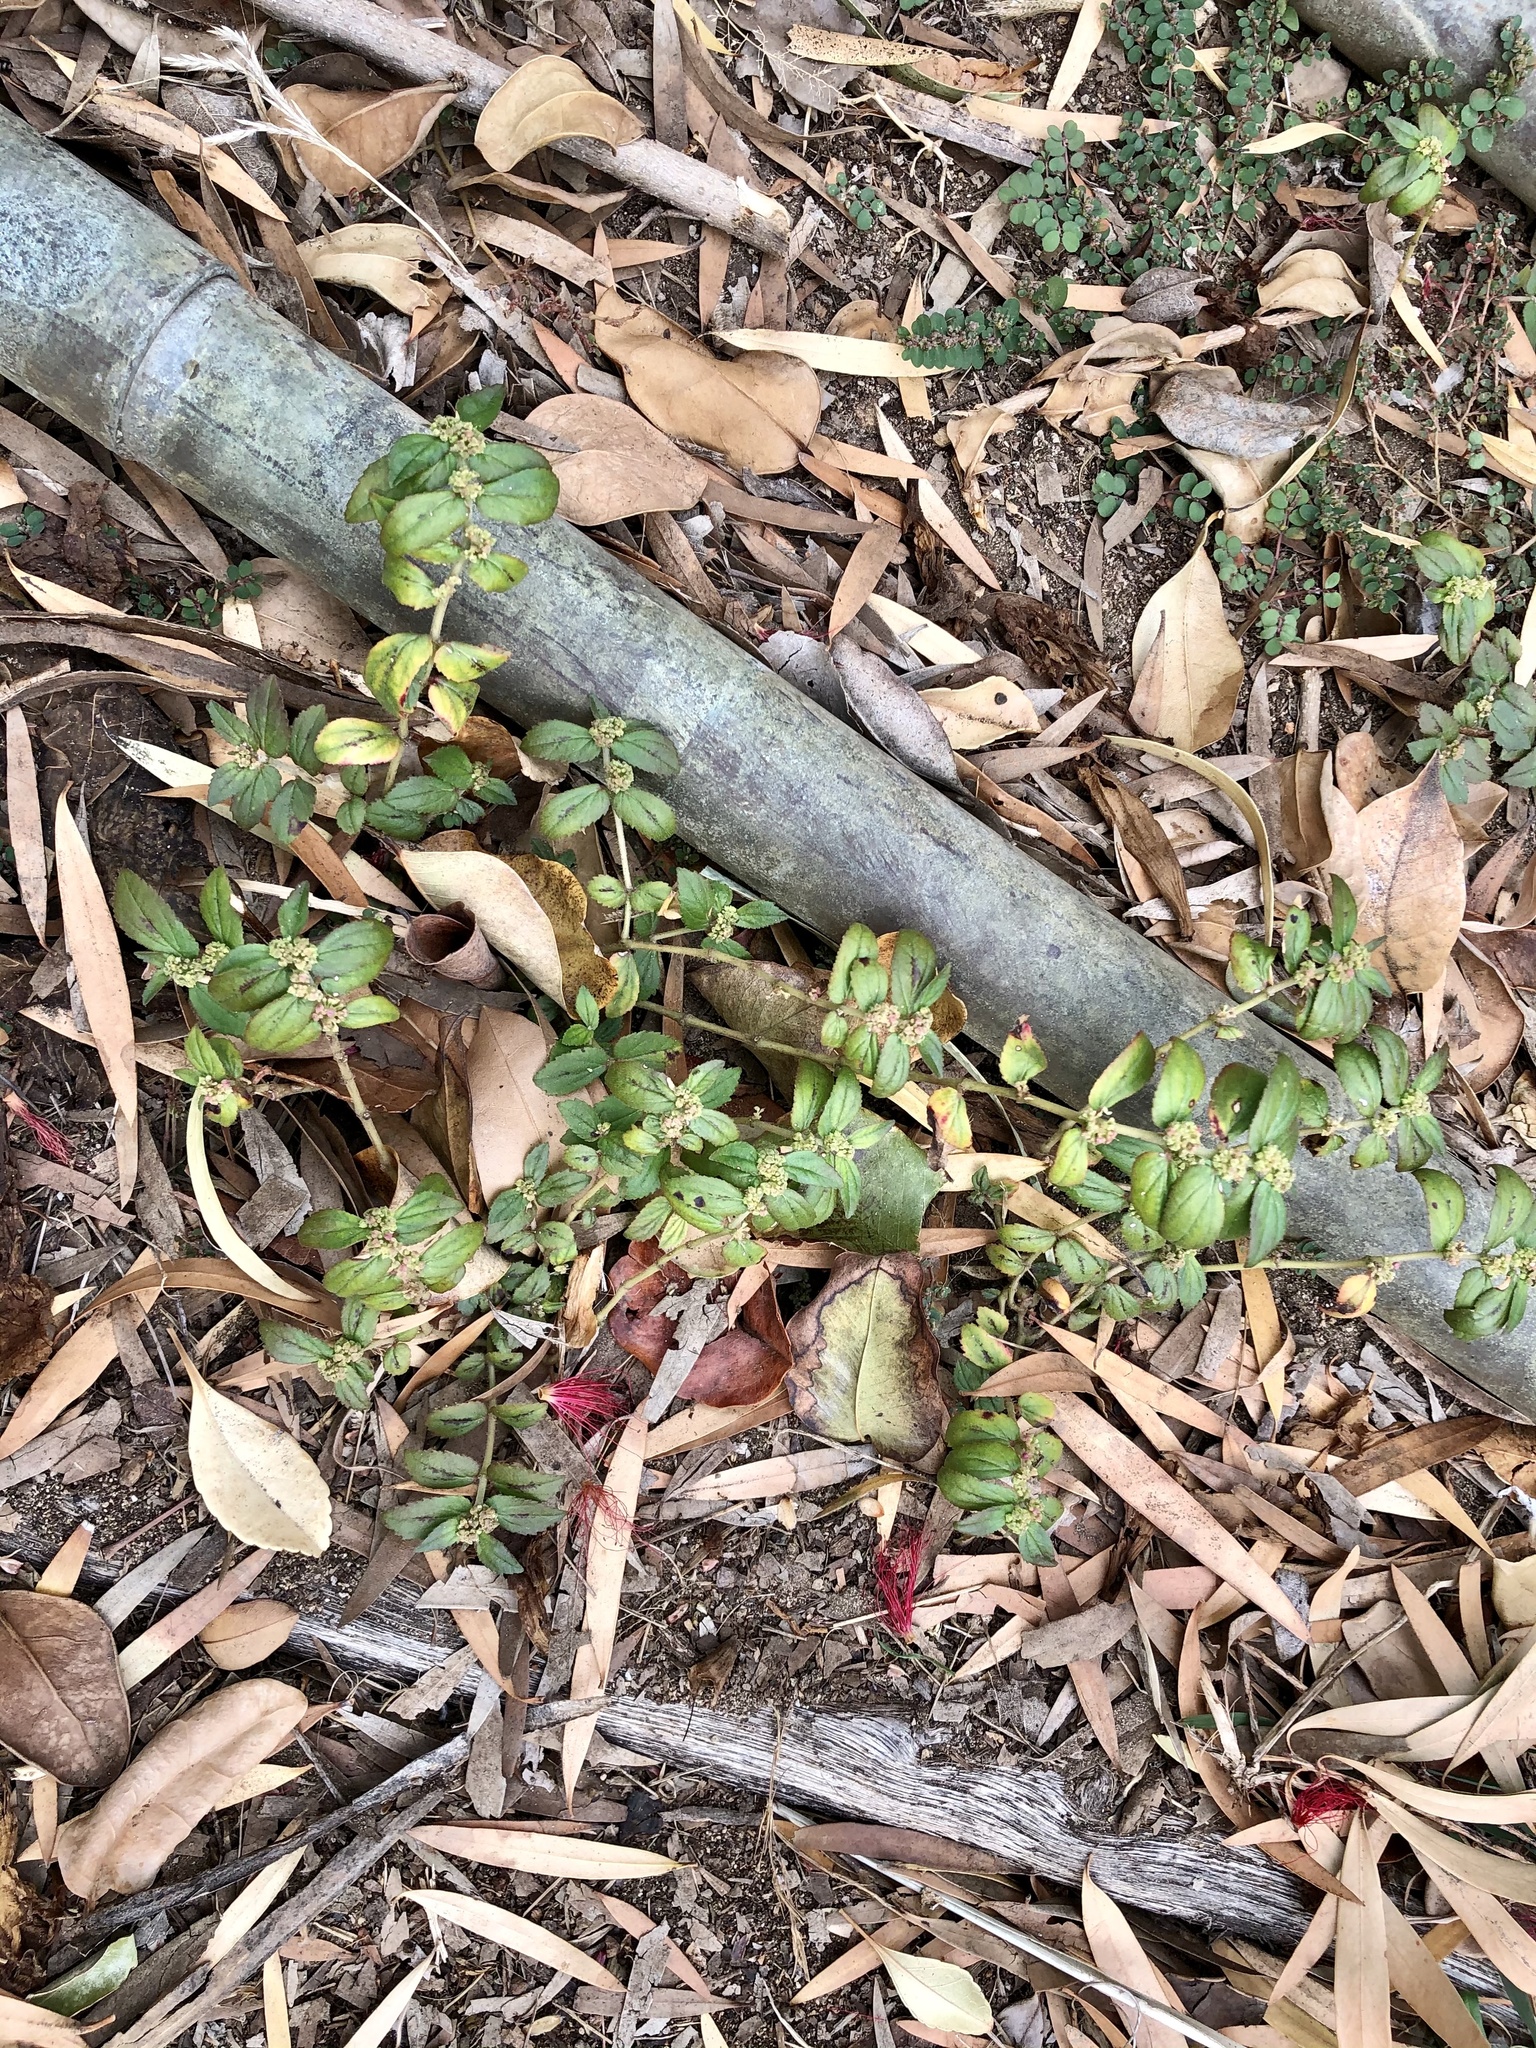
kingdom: Plantae
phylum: Tracheophyta
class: Magnoliopsida
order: Malpighiales
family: Euphorbiaceae
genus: Euphorbia
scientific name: Euphorbia hirta
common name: Pillpod sandmat
